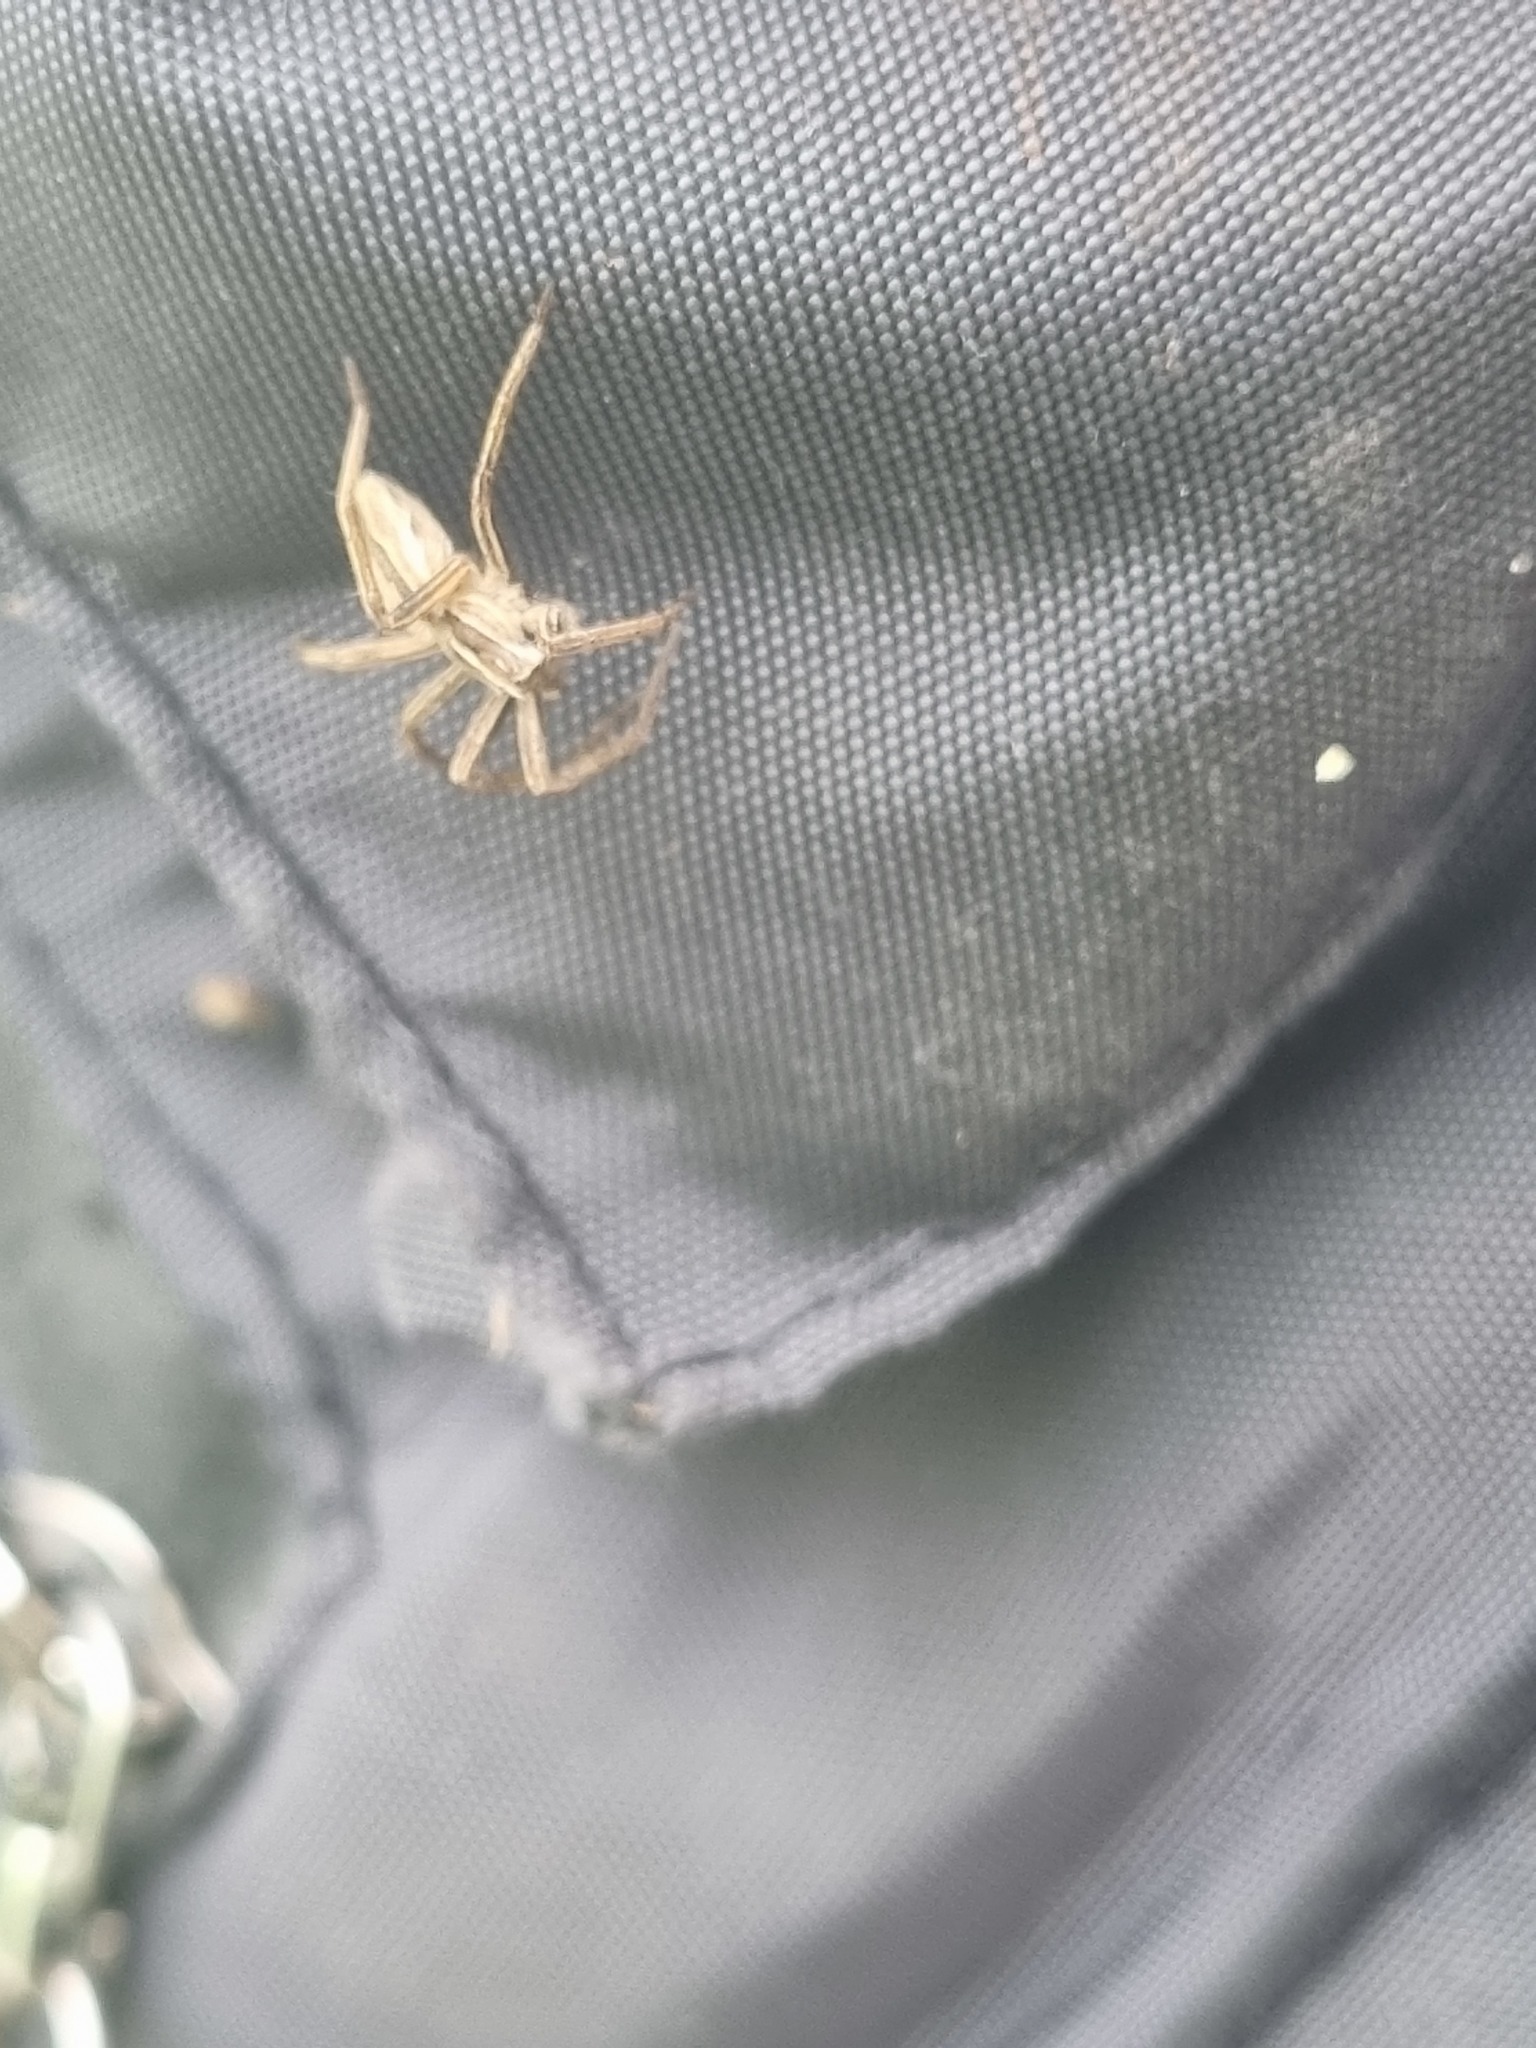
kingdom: Animalia
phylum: Arthropoda
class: Arachnida
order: Araneae
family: Pisauridae
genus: Pisaura
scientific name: Pisaura mirabilis
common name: Tent spider
